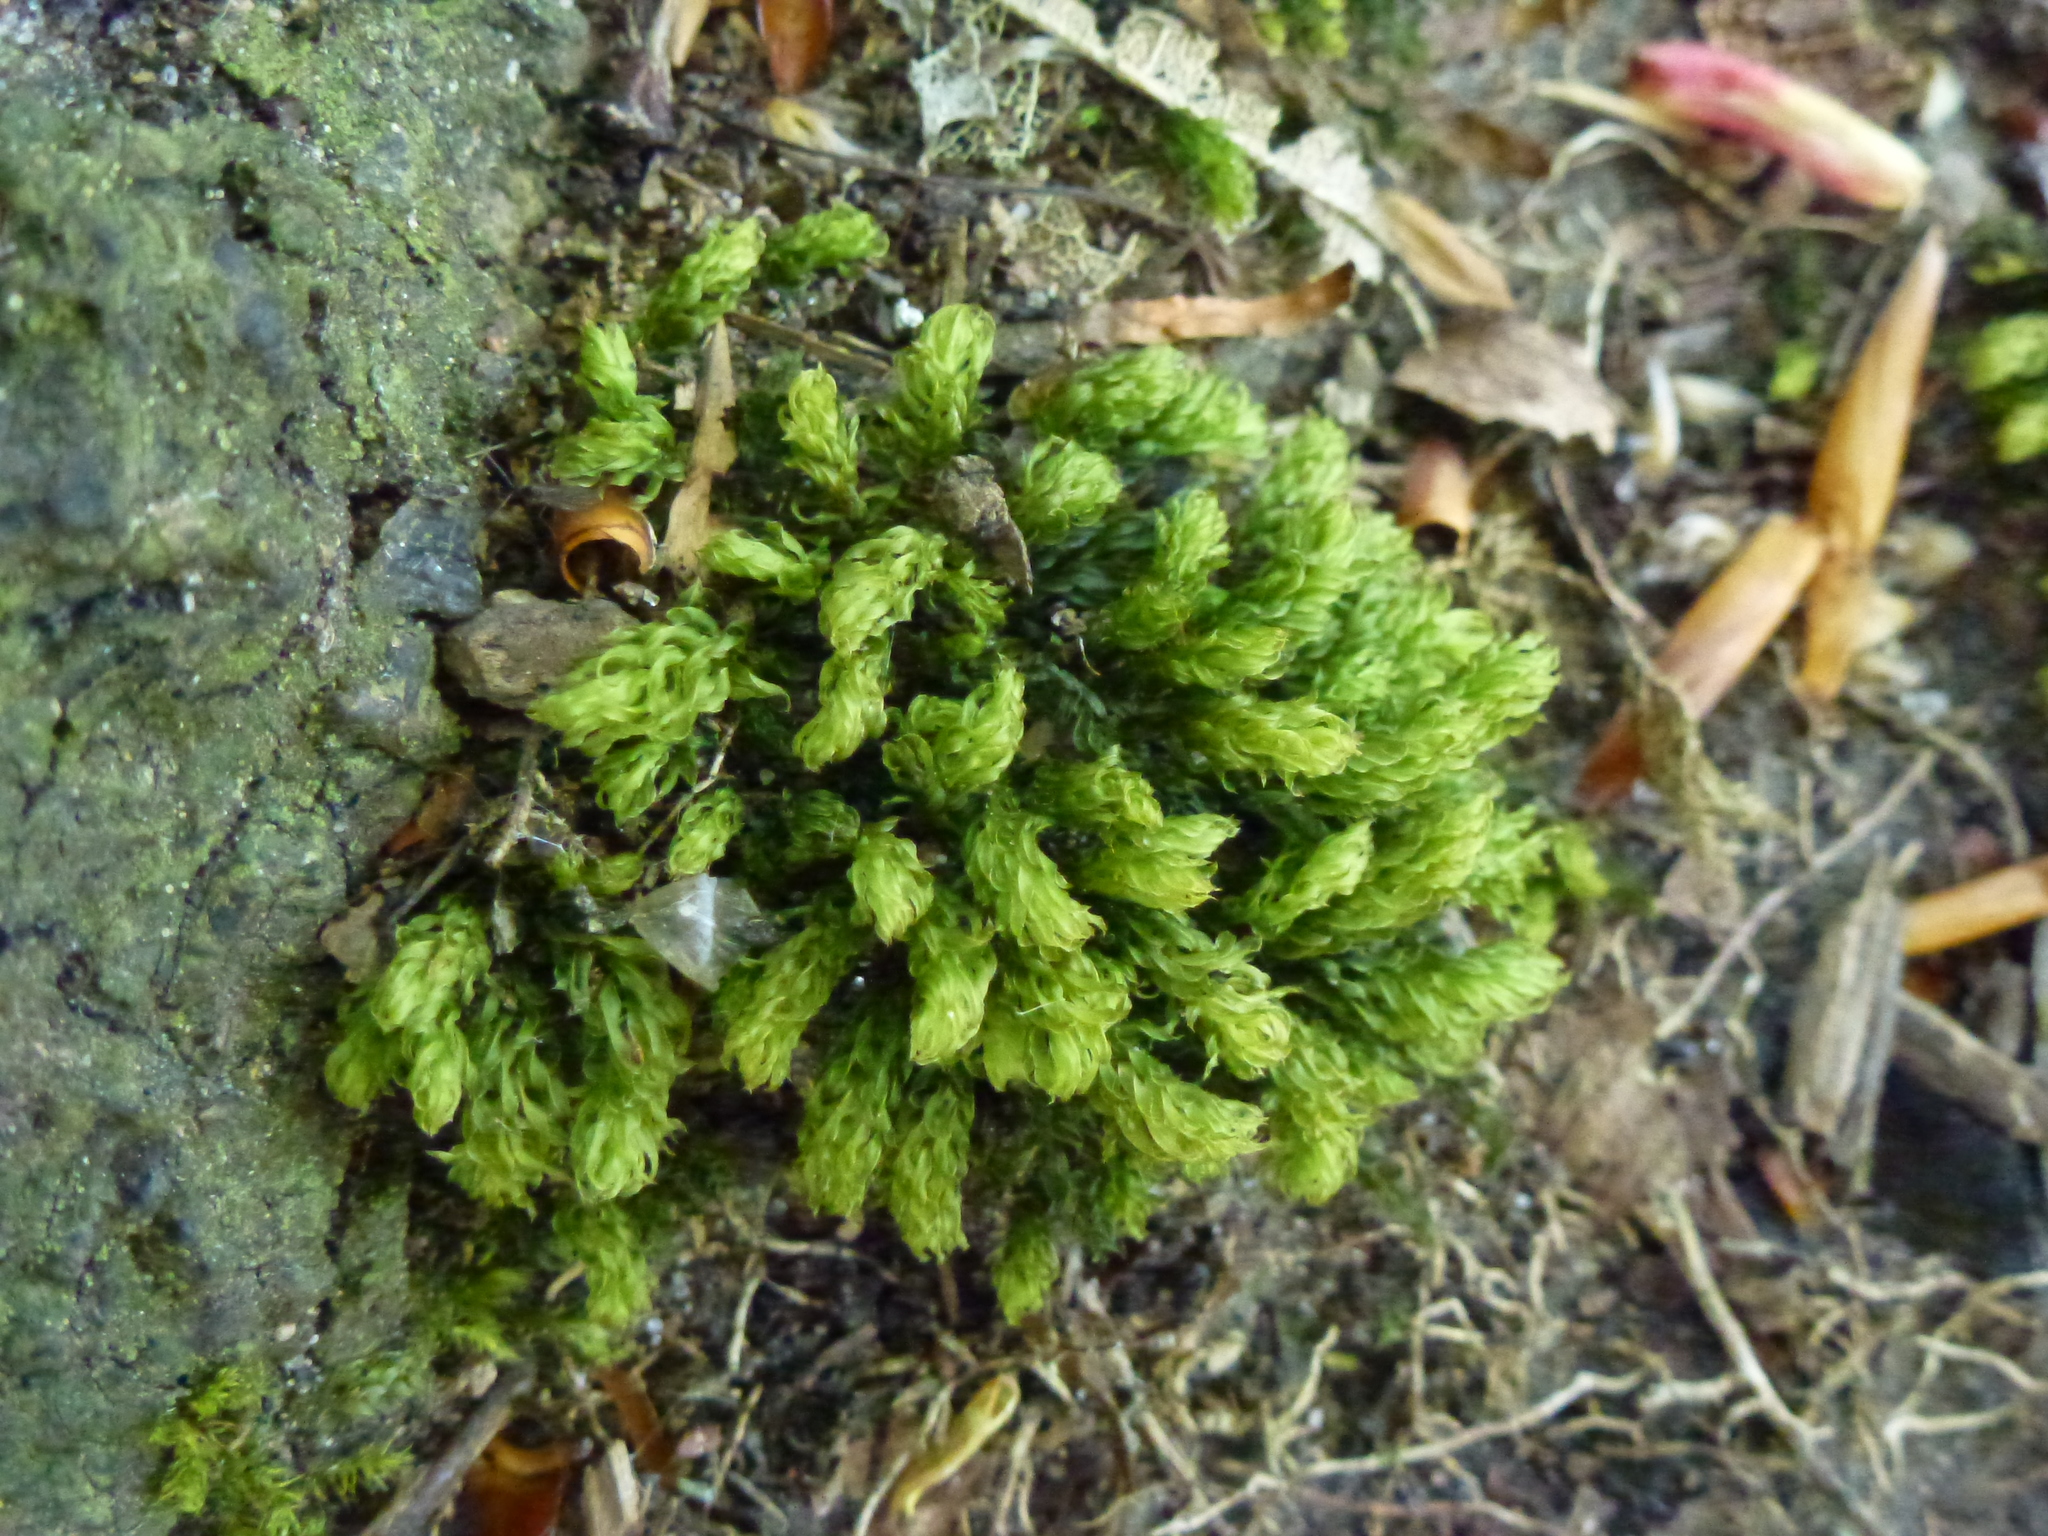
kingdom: Plantae
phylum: Bryophyta
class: Bryopsida
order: Bryales
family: Mniaceae
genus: Mnium
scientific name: Mnium hornum
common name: Swan's-neck leafy moss
